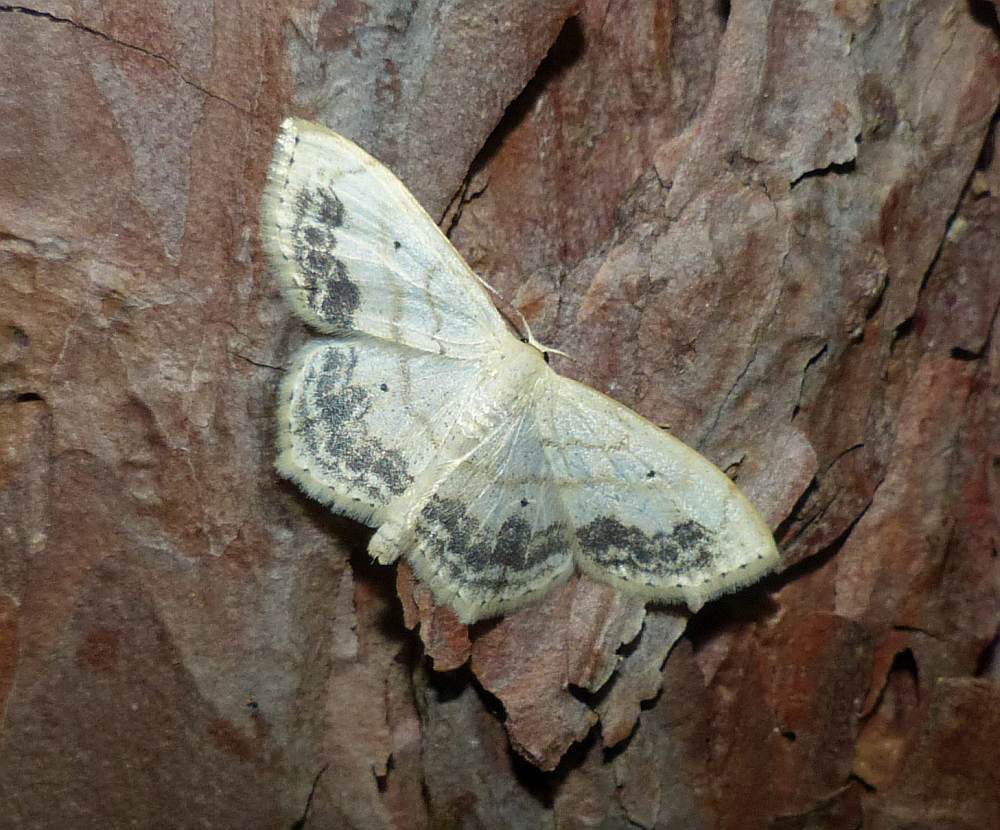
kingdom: Animalia
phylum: Arthropoda
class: Insecta
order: Lepidoptera
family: Geometridae
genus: Scopula
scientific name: Scopula limboundata
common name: Large lace border
